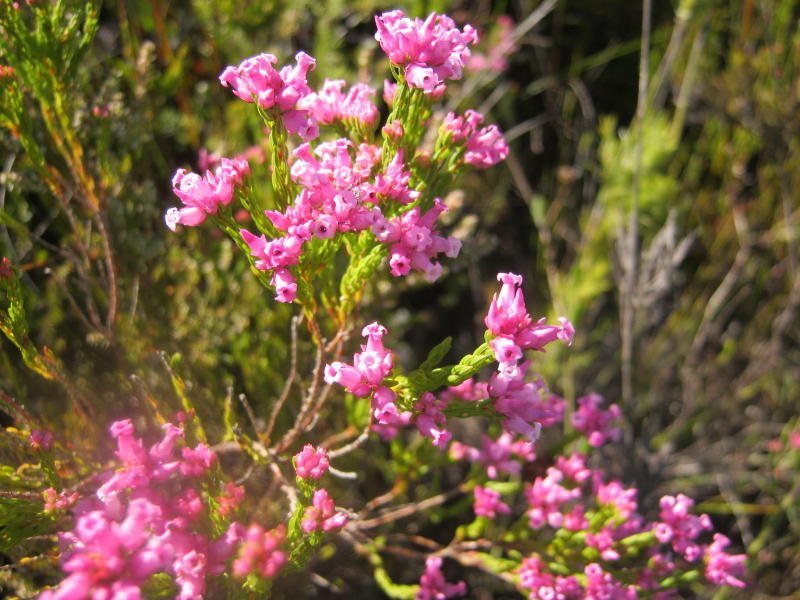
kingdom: Plantae
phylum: Tracheophyta
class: Magnoliopsida
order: Ericales
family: Ericaceae
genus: Erica
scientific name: Erica steinbergiana
